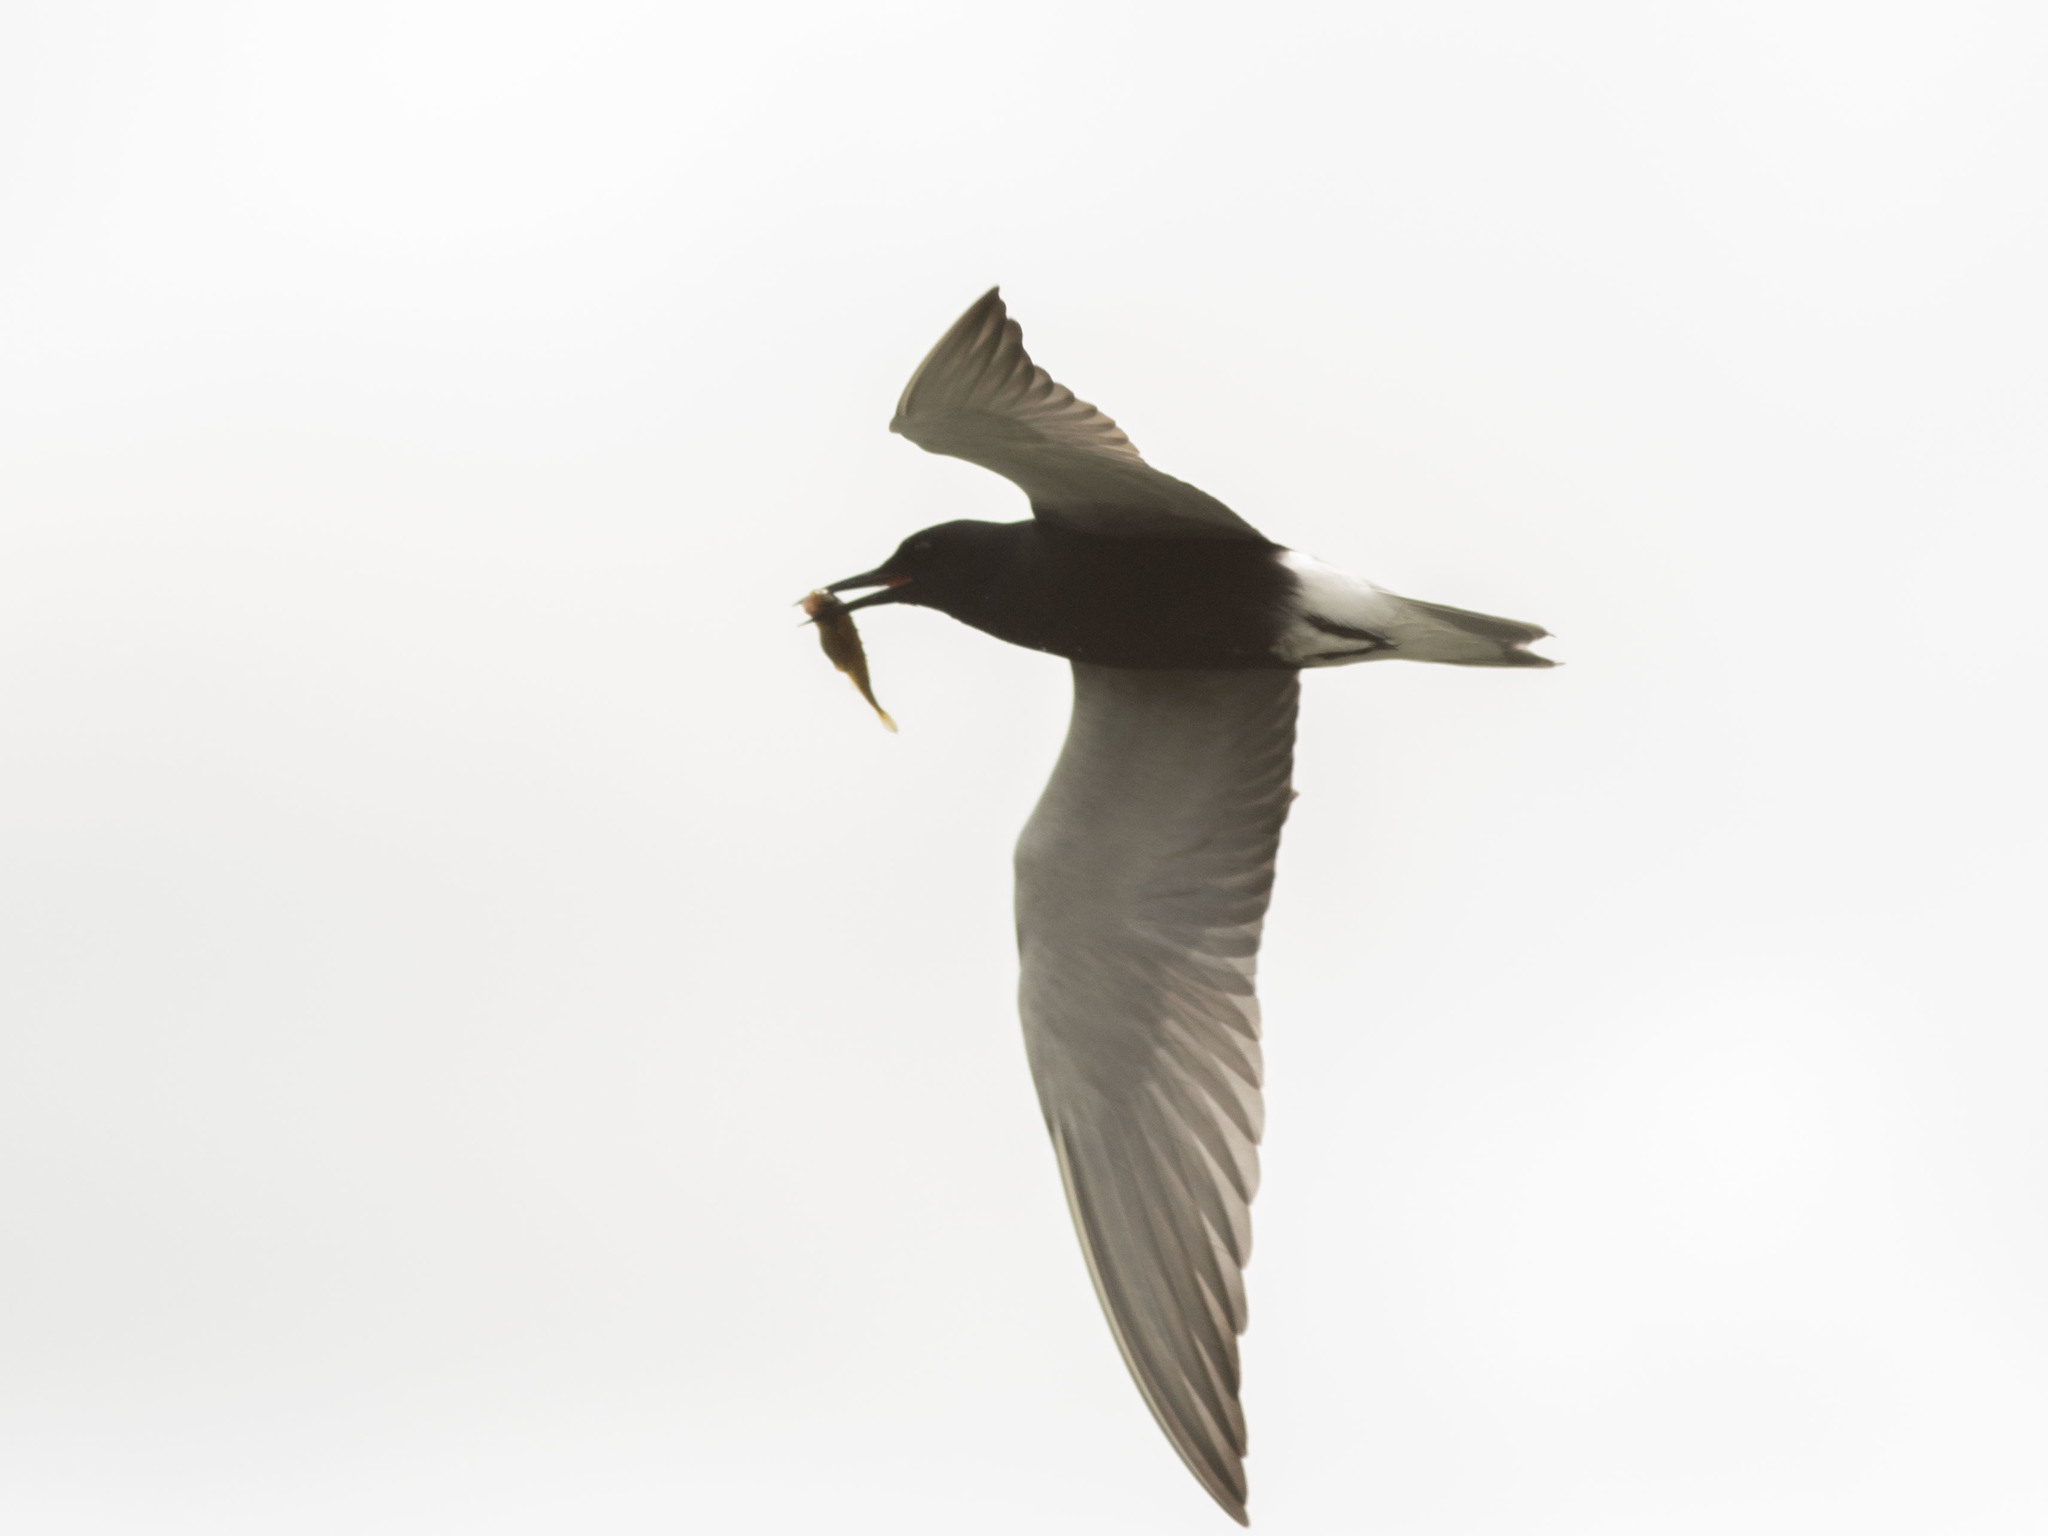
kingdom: Animalia
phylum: Chordata
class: Aves
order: Charadriiformes
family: Laridae
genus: Chlidonias
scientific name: Chlidonias niger
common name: Black tern
